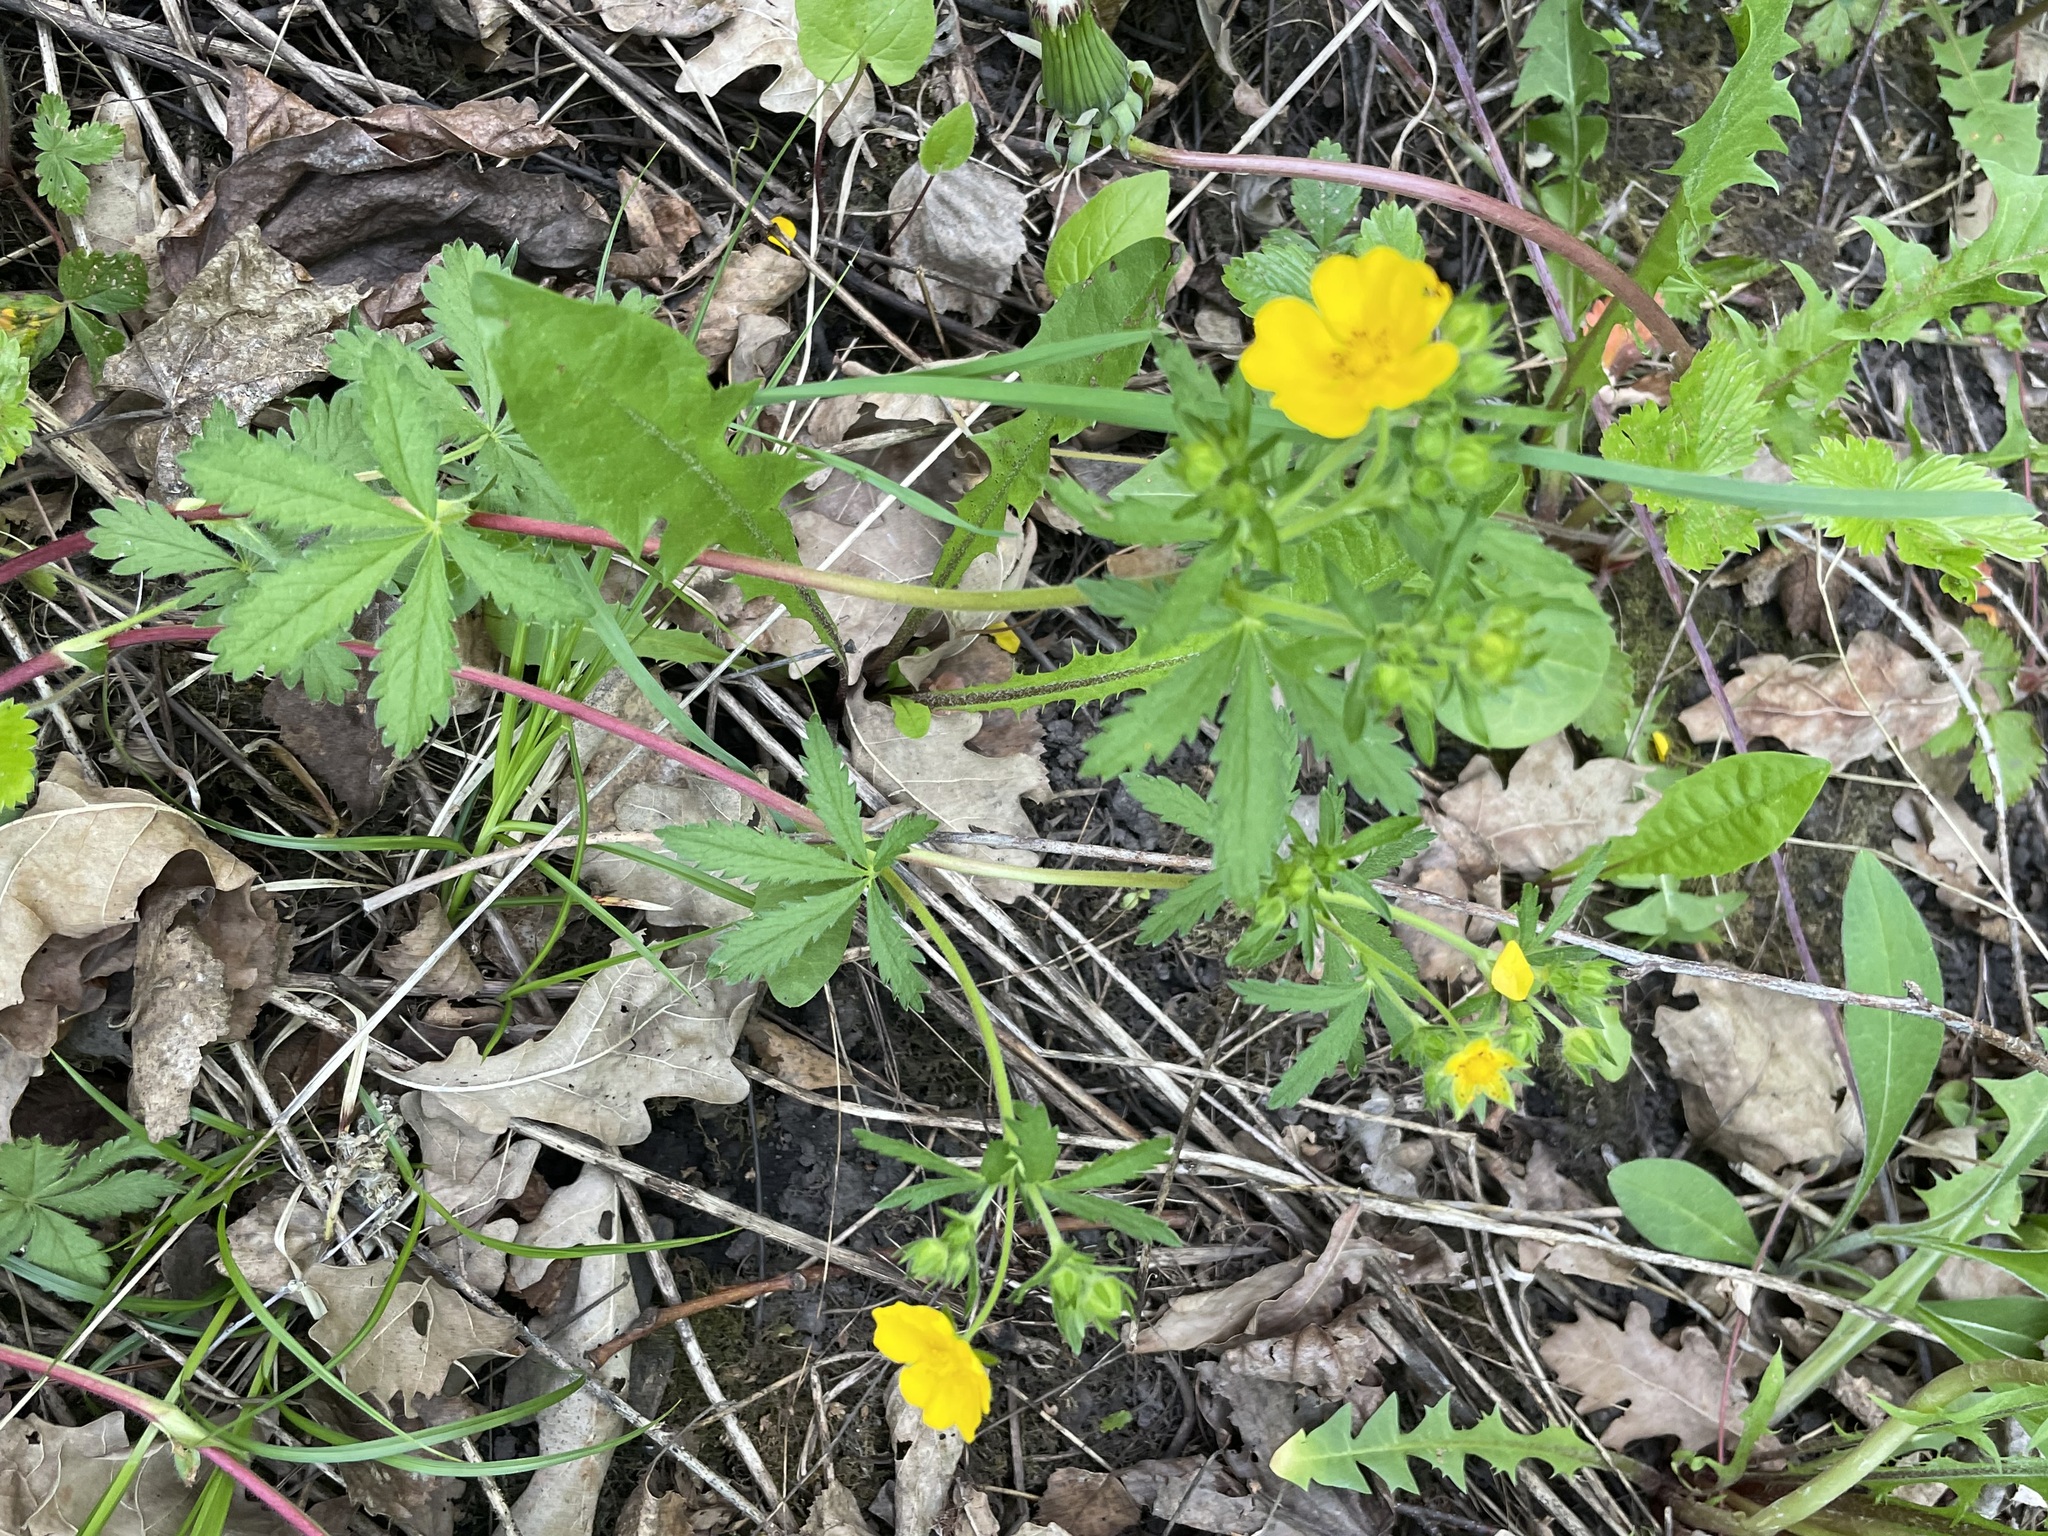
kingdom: Plantae
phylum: Tracheophyta
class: Magnoliopsida
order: Ranunculales
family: Ranunculaceae
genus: Anemone
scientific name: Anemone ranunculoides
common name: Yellow anemone
